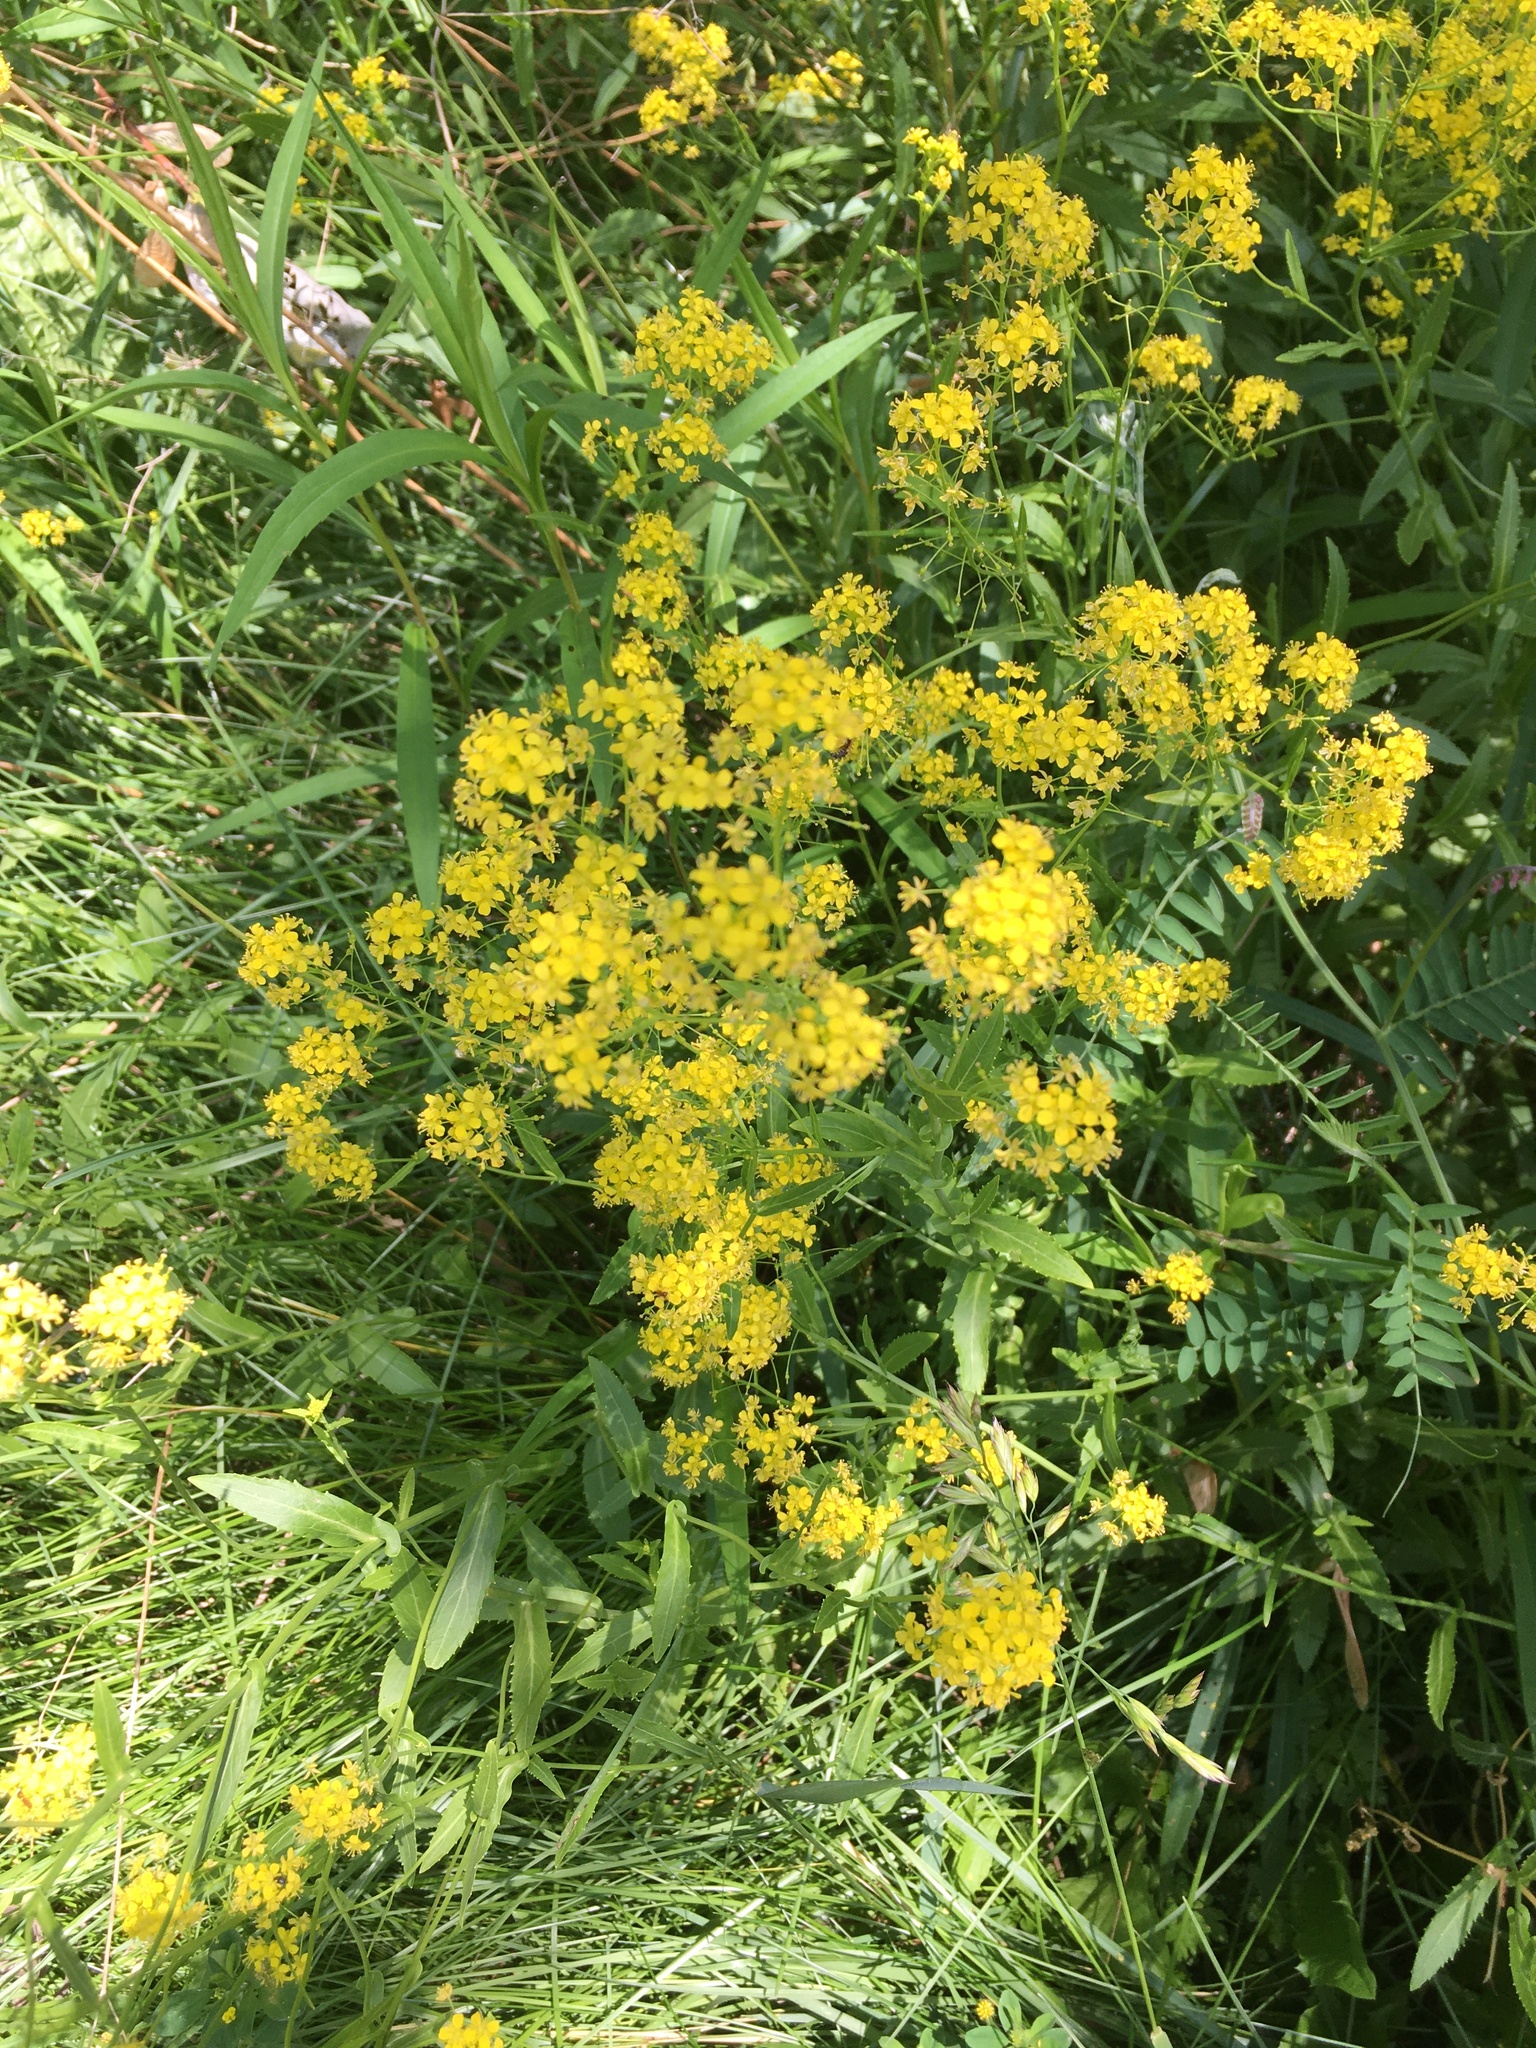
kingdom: Plantae
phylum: Tracheophyta
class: Magnoliopsida
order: Brassicales
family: Brassicaceae
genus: Barbarea
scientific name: Barbarea vulgaris
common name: Cressy-greens
